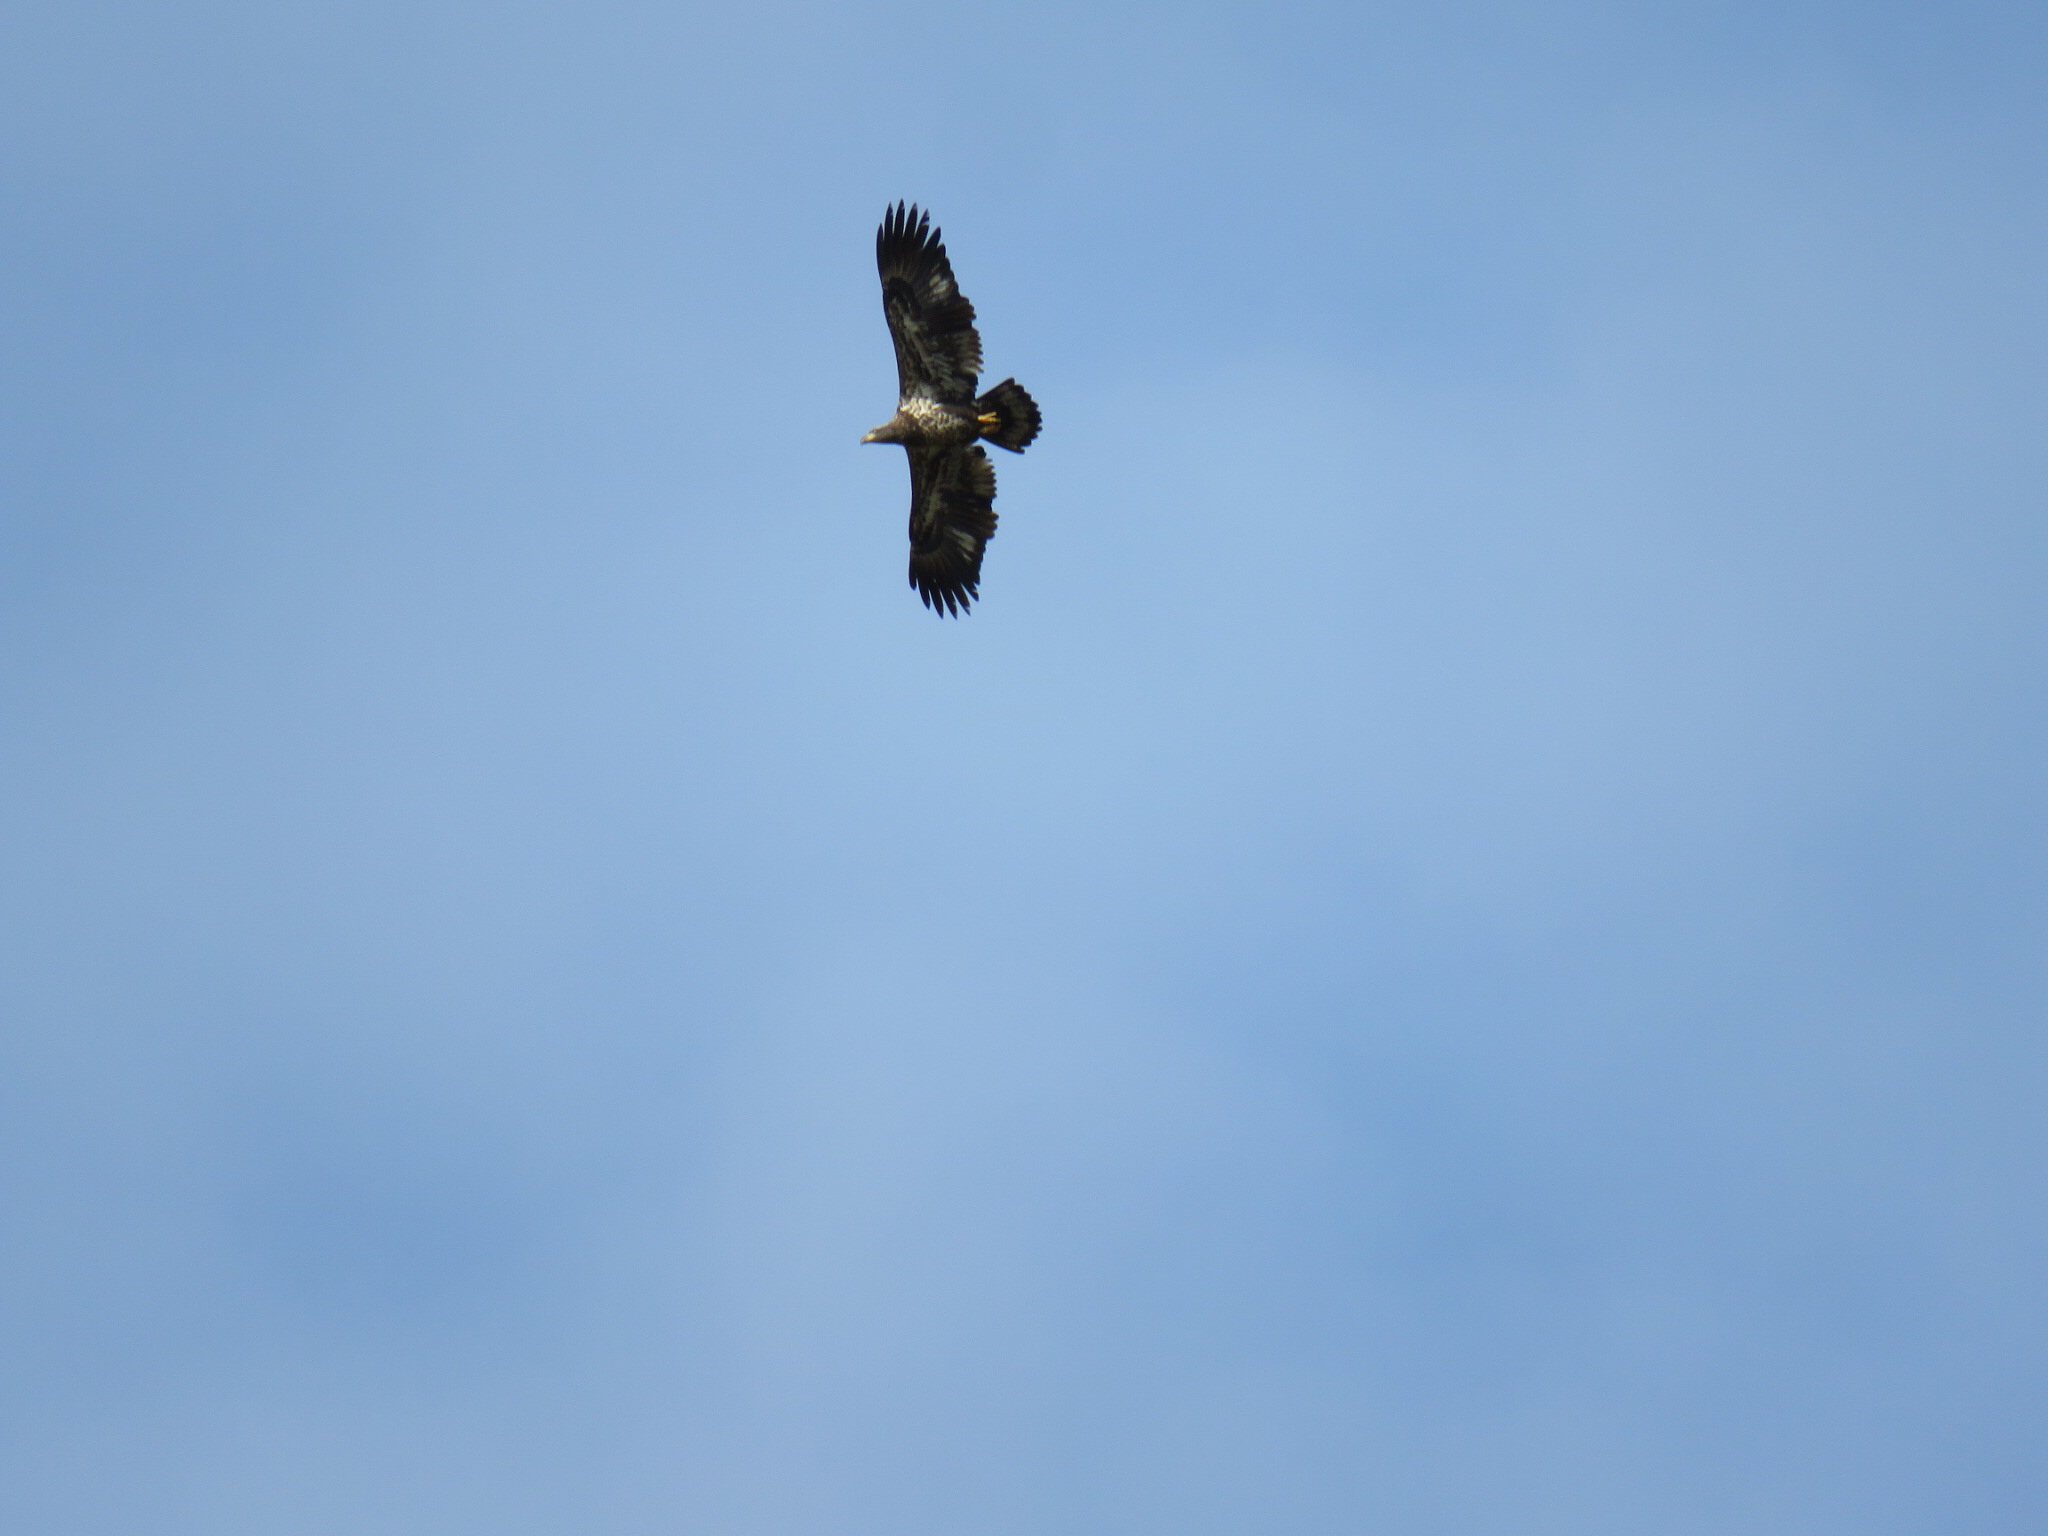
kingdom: Animalia
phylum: Chordata
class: Aves
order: Accipitriformes
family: Accipitridae
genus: Haliaeetus
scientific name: Haliaeetus leucocephalus
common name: Bald eagle
